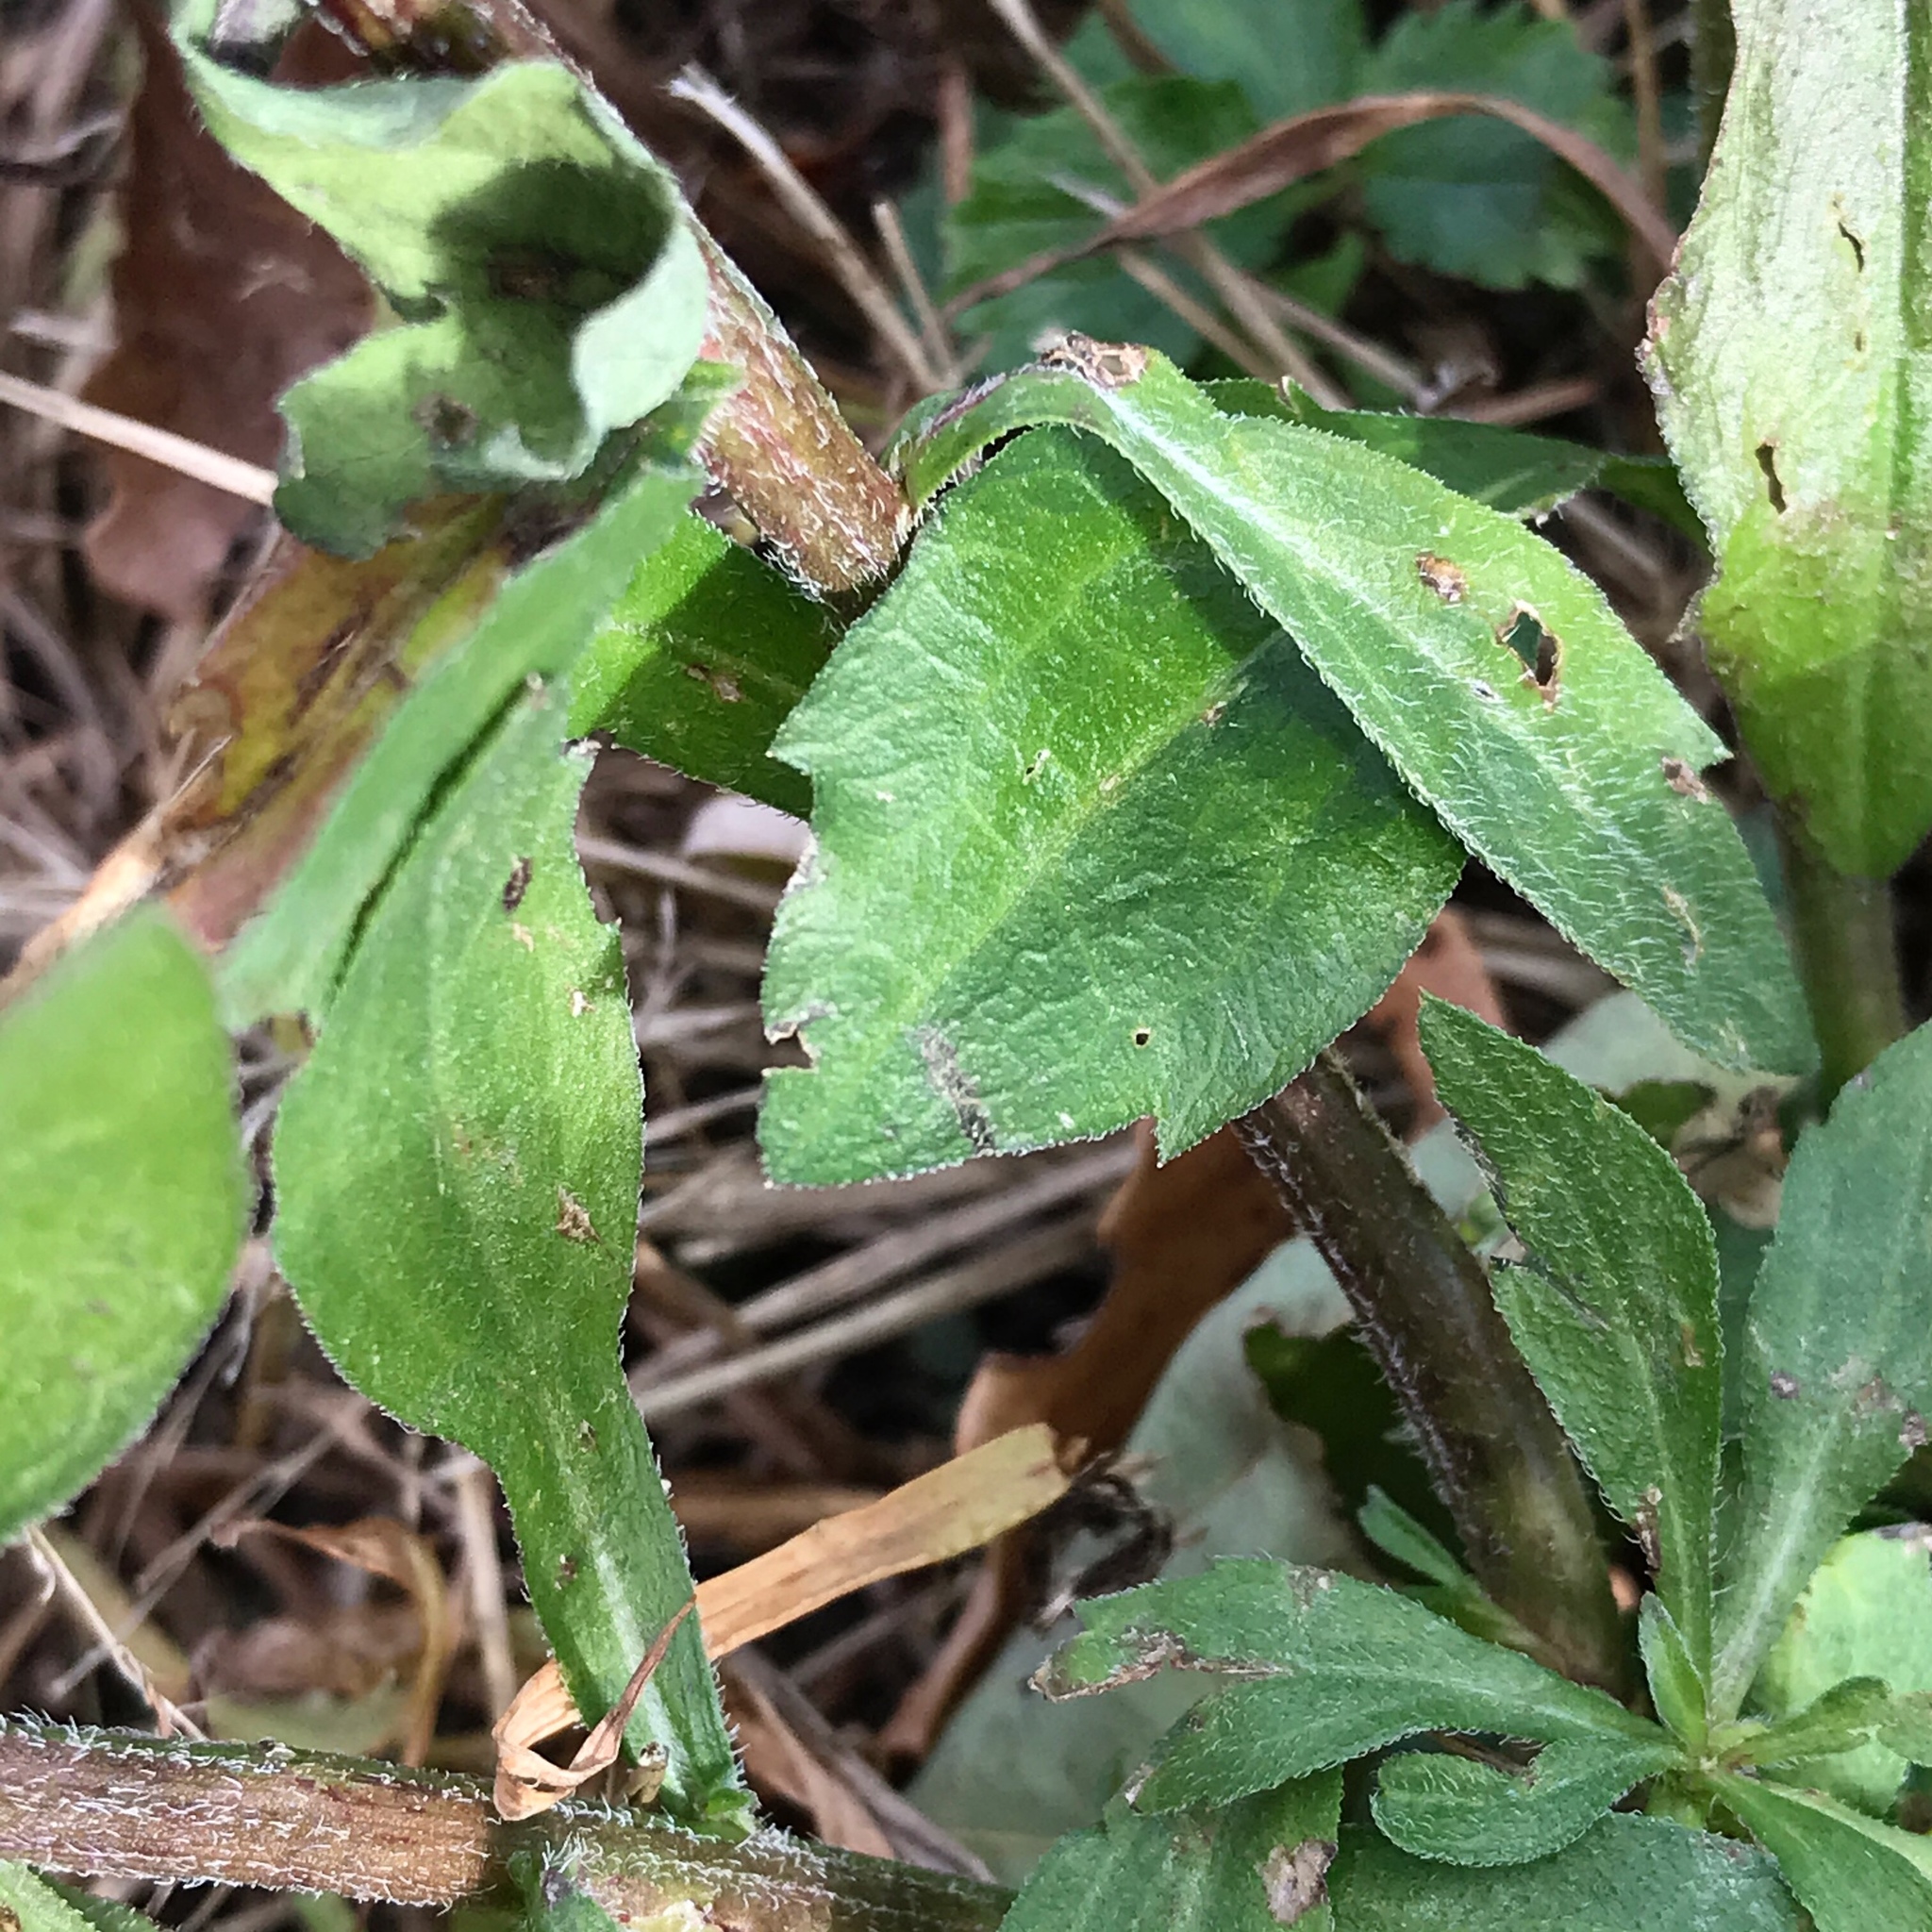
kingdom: Plantae
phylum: Tracheophyta
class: Magnoliopsida
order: Asterales
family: Asteraceae
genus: Erigeron
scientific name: Erigeron annuus
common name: Tall fleabane
